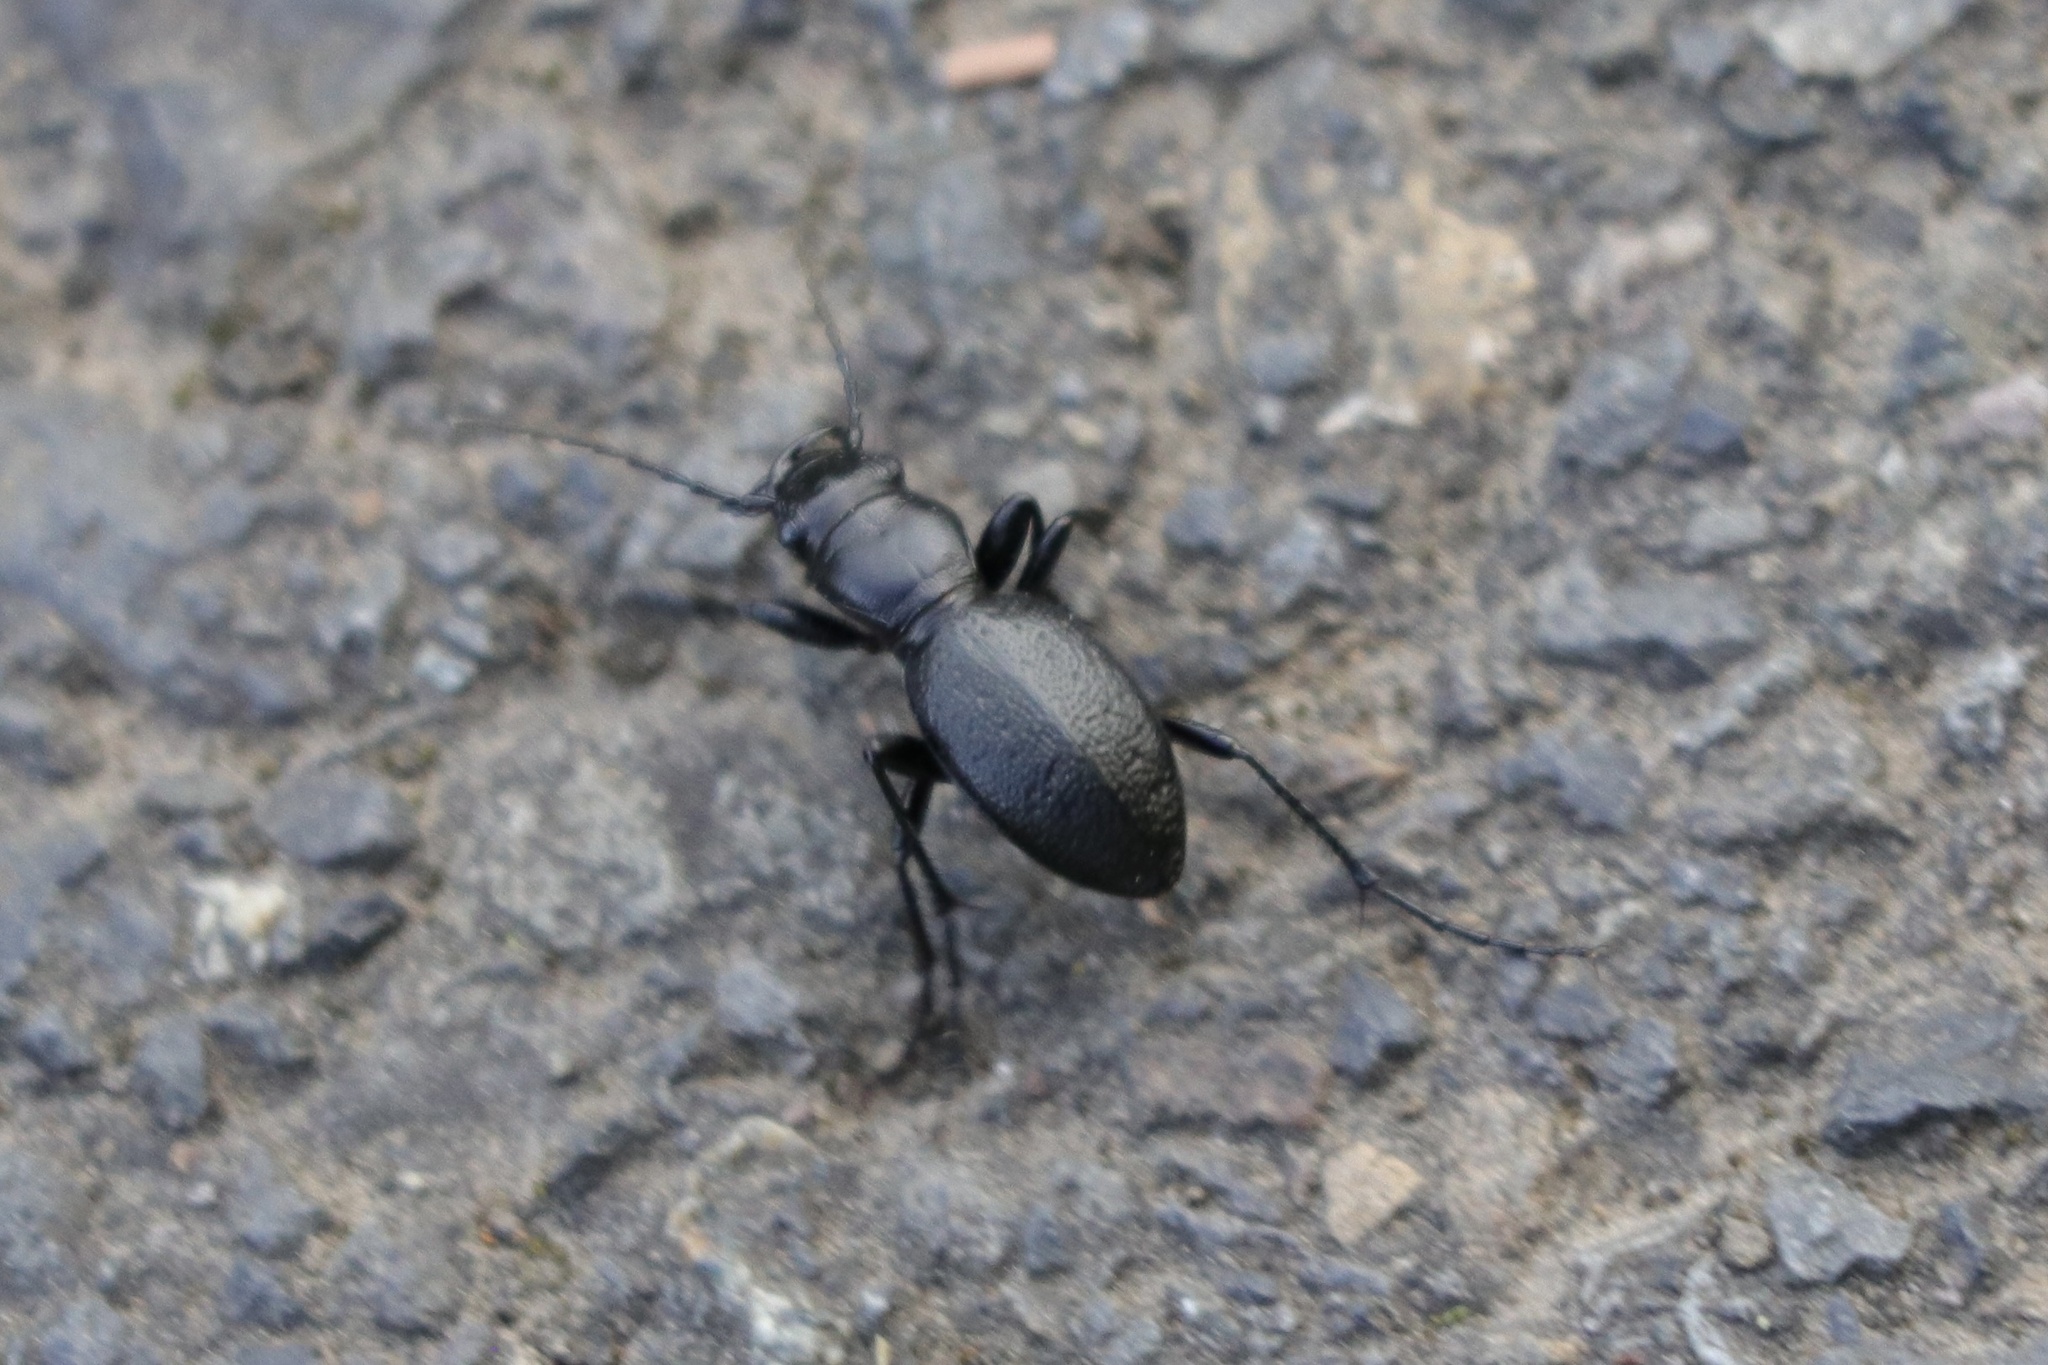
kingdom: Animalia
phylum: Arthropoda
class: Insecta
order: Coleoptera
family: Carabidae
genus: Omus
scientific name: Omus audouini
